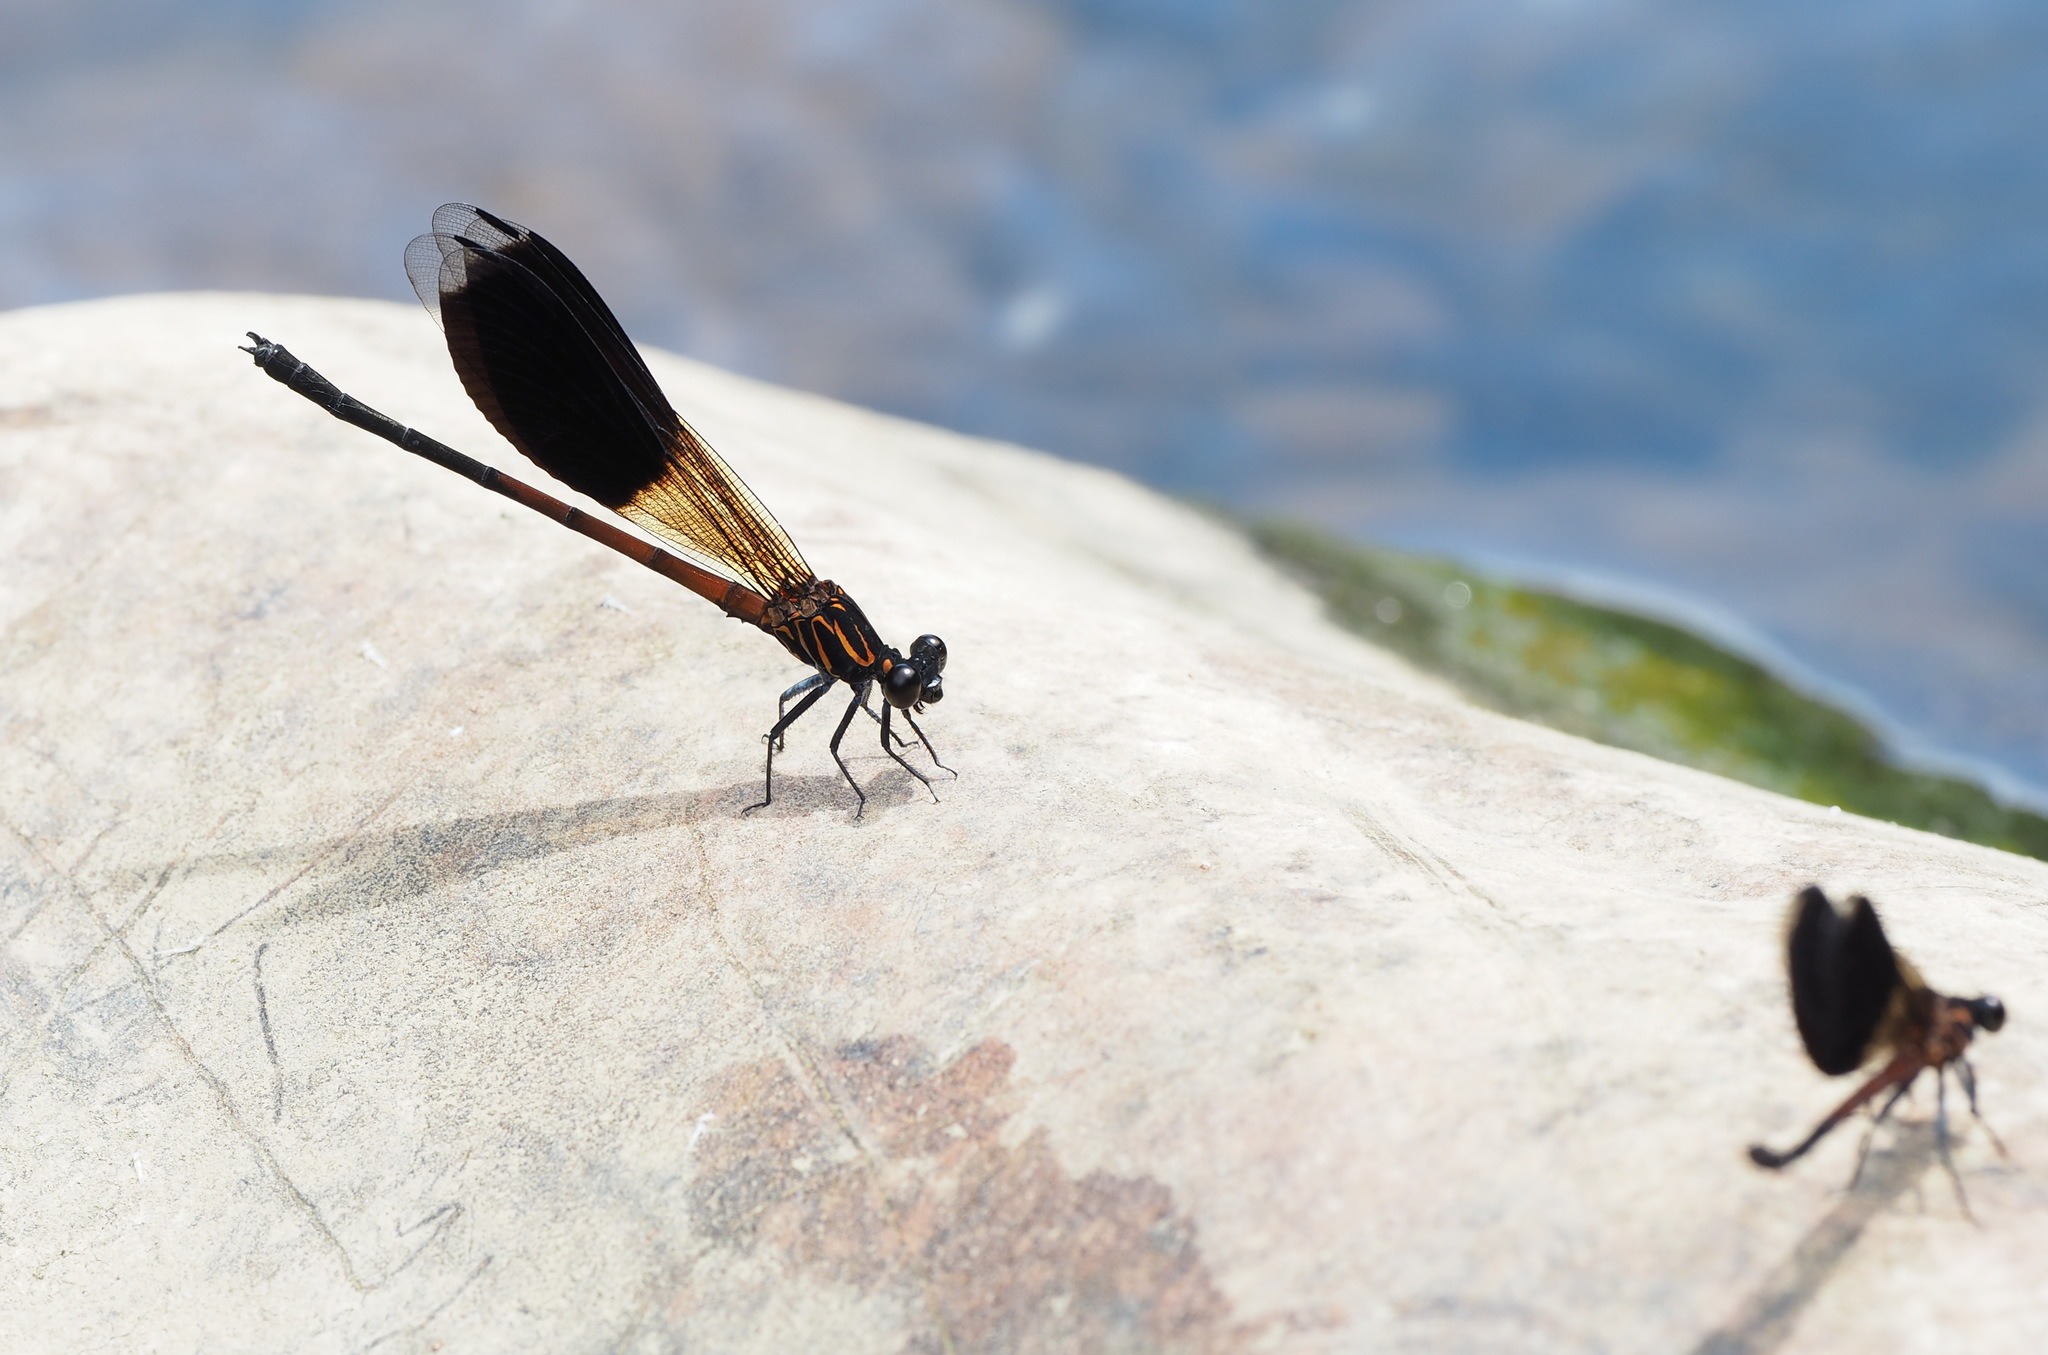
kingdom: Animalia
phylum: Arthropoda
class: Insecta
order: Odonata
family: Euphaeidae
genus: Euphaea
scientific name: Euphaea formosa
